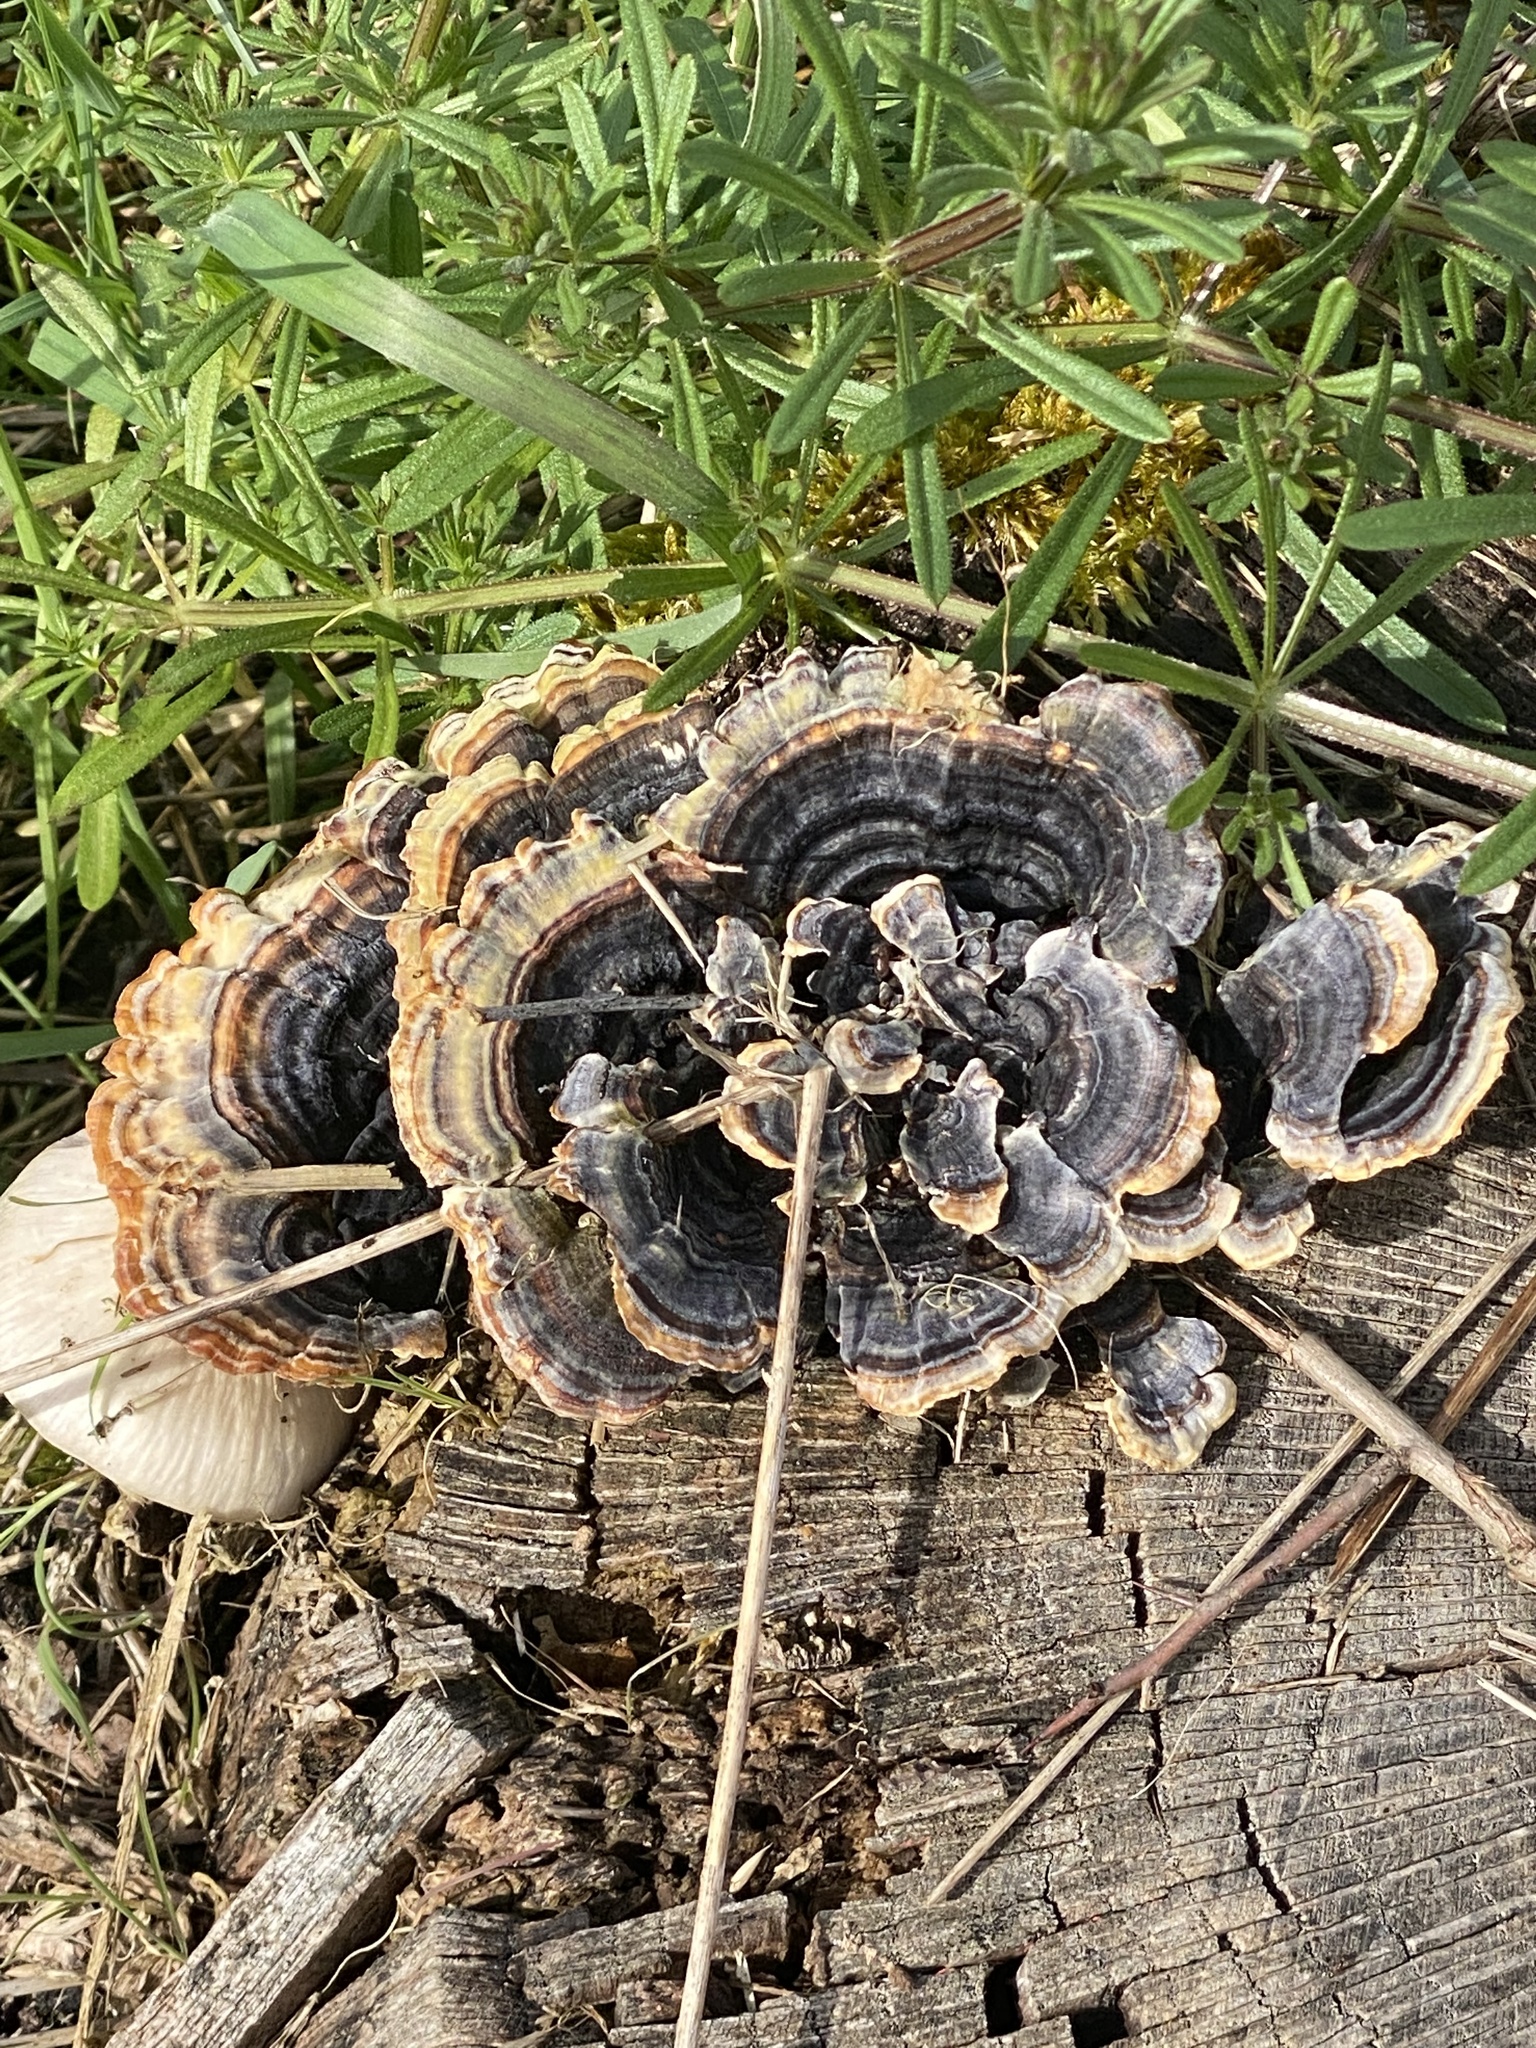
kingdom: Fungi
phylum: Basidiomycota
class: Agaricomycetes
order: Polyporales
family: Polyporaceae
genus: Trametes
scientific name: Trametes versicolor
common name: Turkeytail
